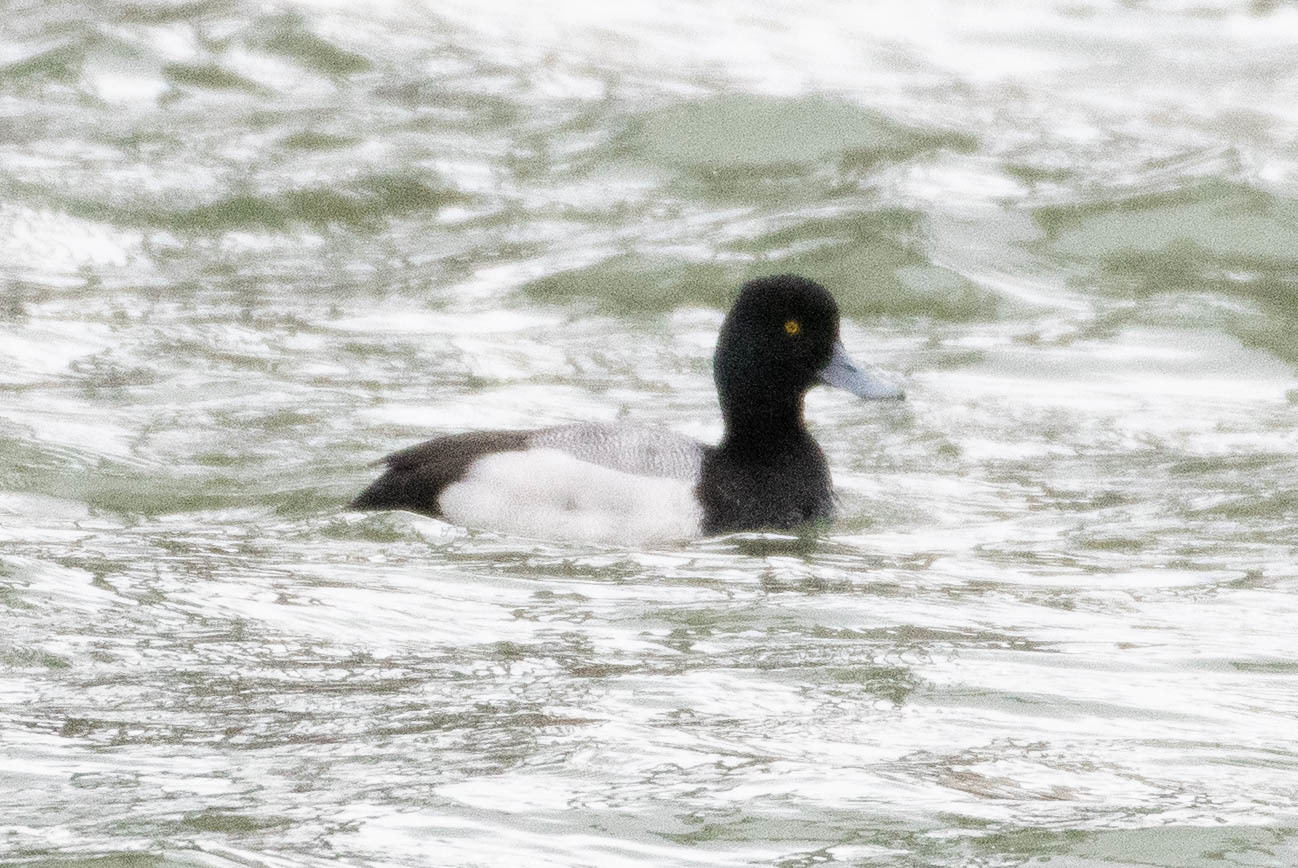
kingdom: Animalia
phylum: Chordata
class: Aves
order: Anseriformes
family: Anatidae
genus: Aythya
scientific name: Aythya affinis
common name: Lesser scaup
